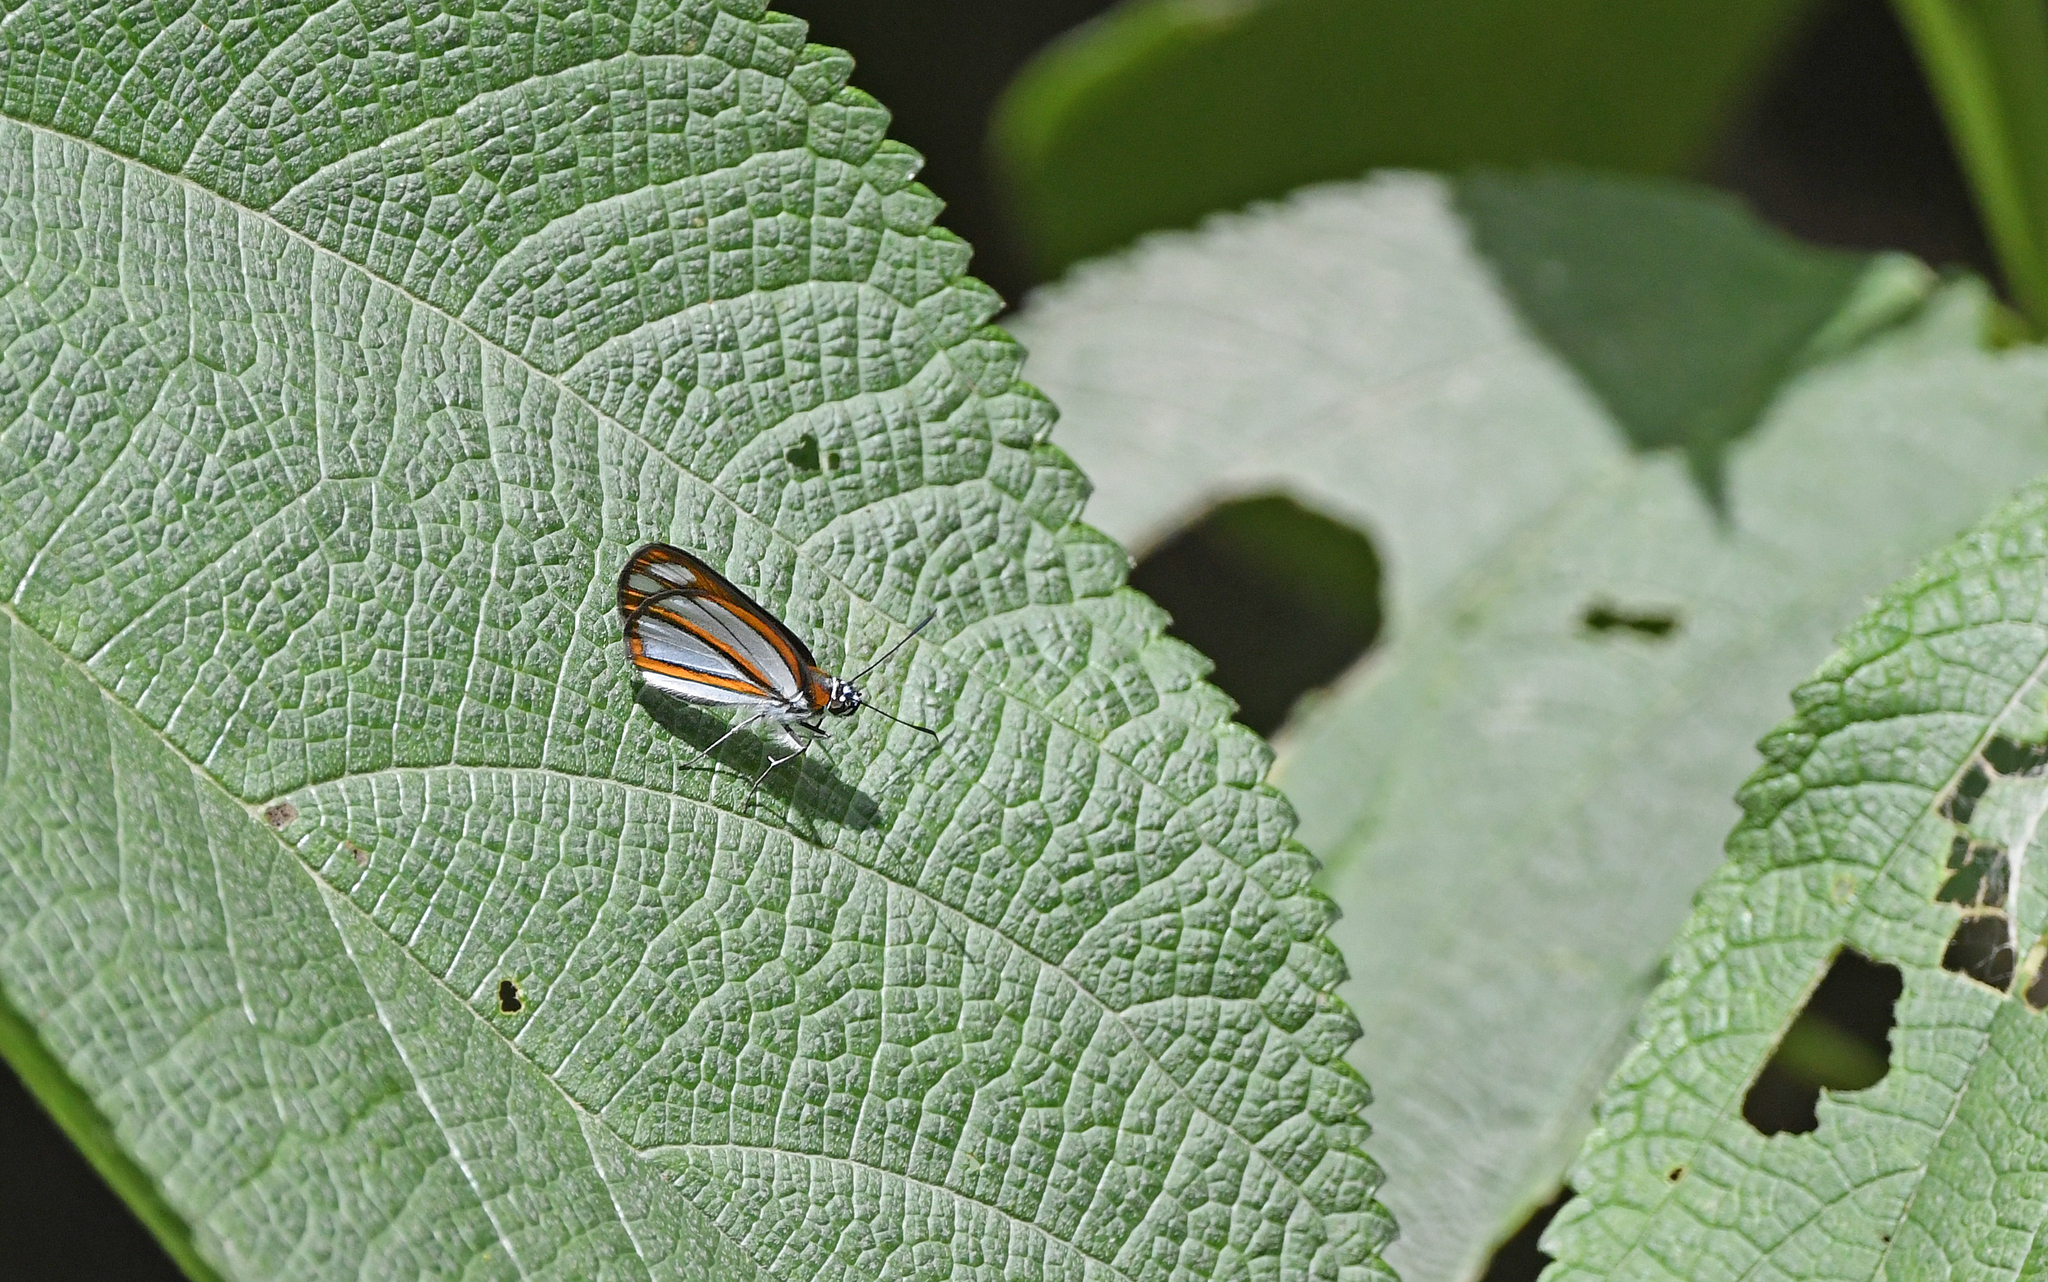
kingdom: Animalia
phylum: Arthropoda
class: Insecta
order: Lepidoptera
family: Hesperiidae
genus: Corra
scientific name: Corra
